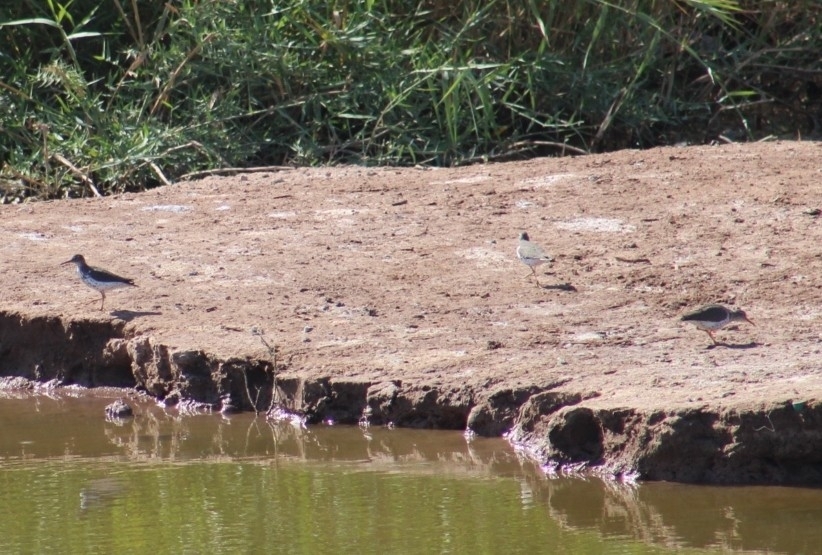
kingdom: Animalia
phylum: Chordata
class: Aves
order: Charadriiformes
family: Scolopacidae
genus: Actitis
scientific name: Actitis macularius
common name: Spotted sandpiper
